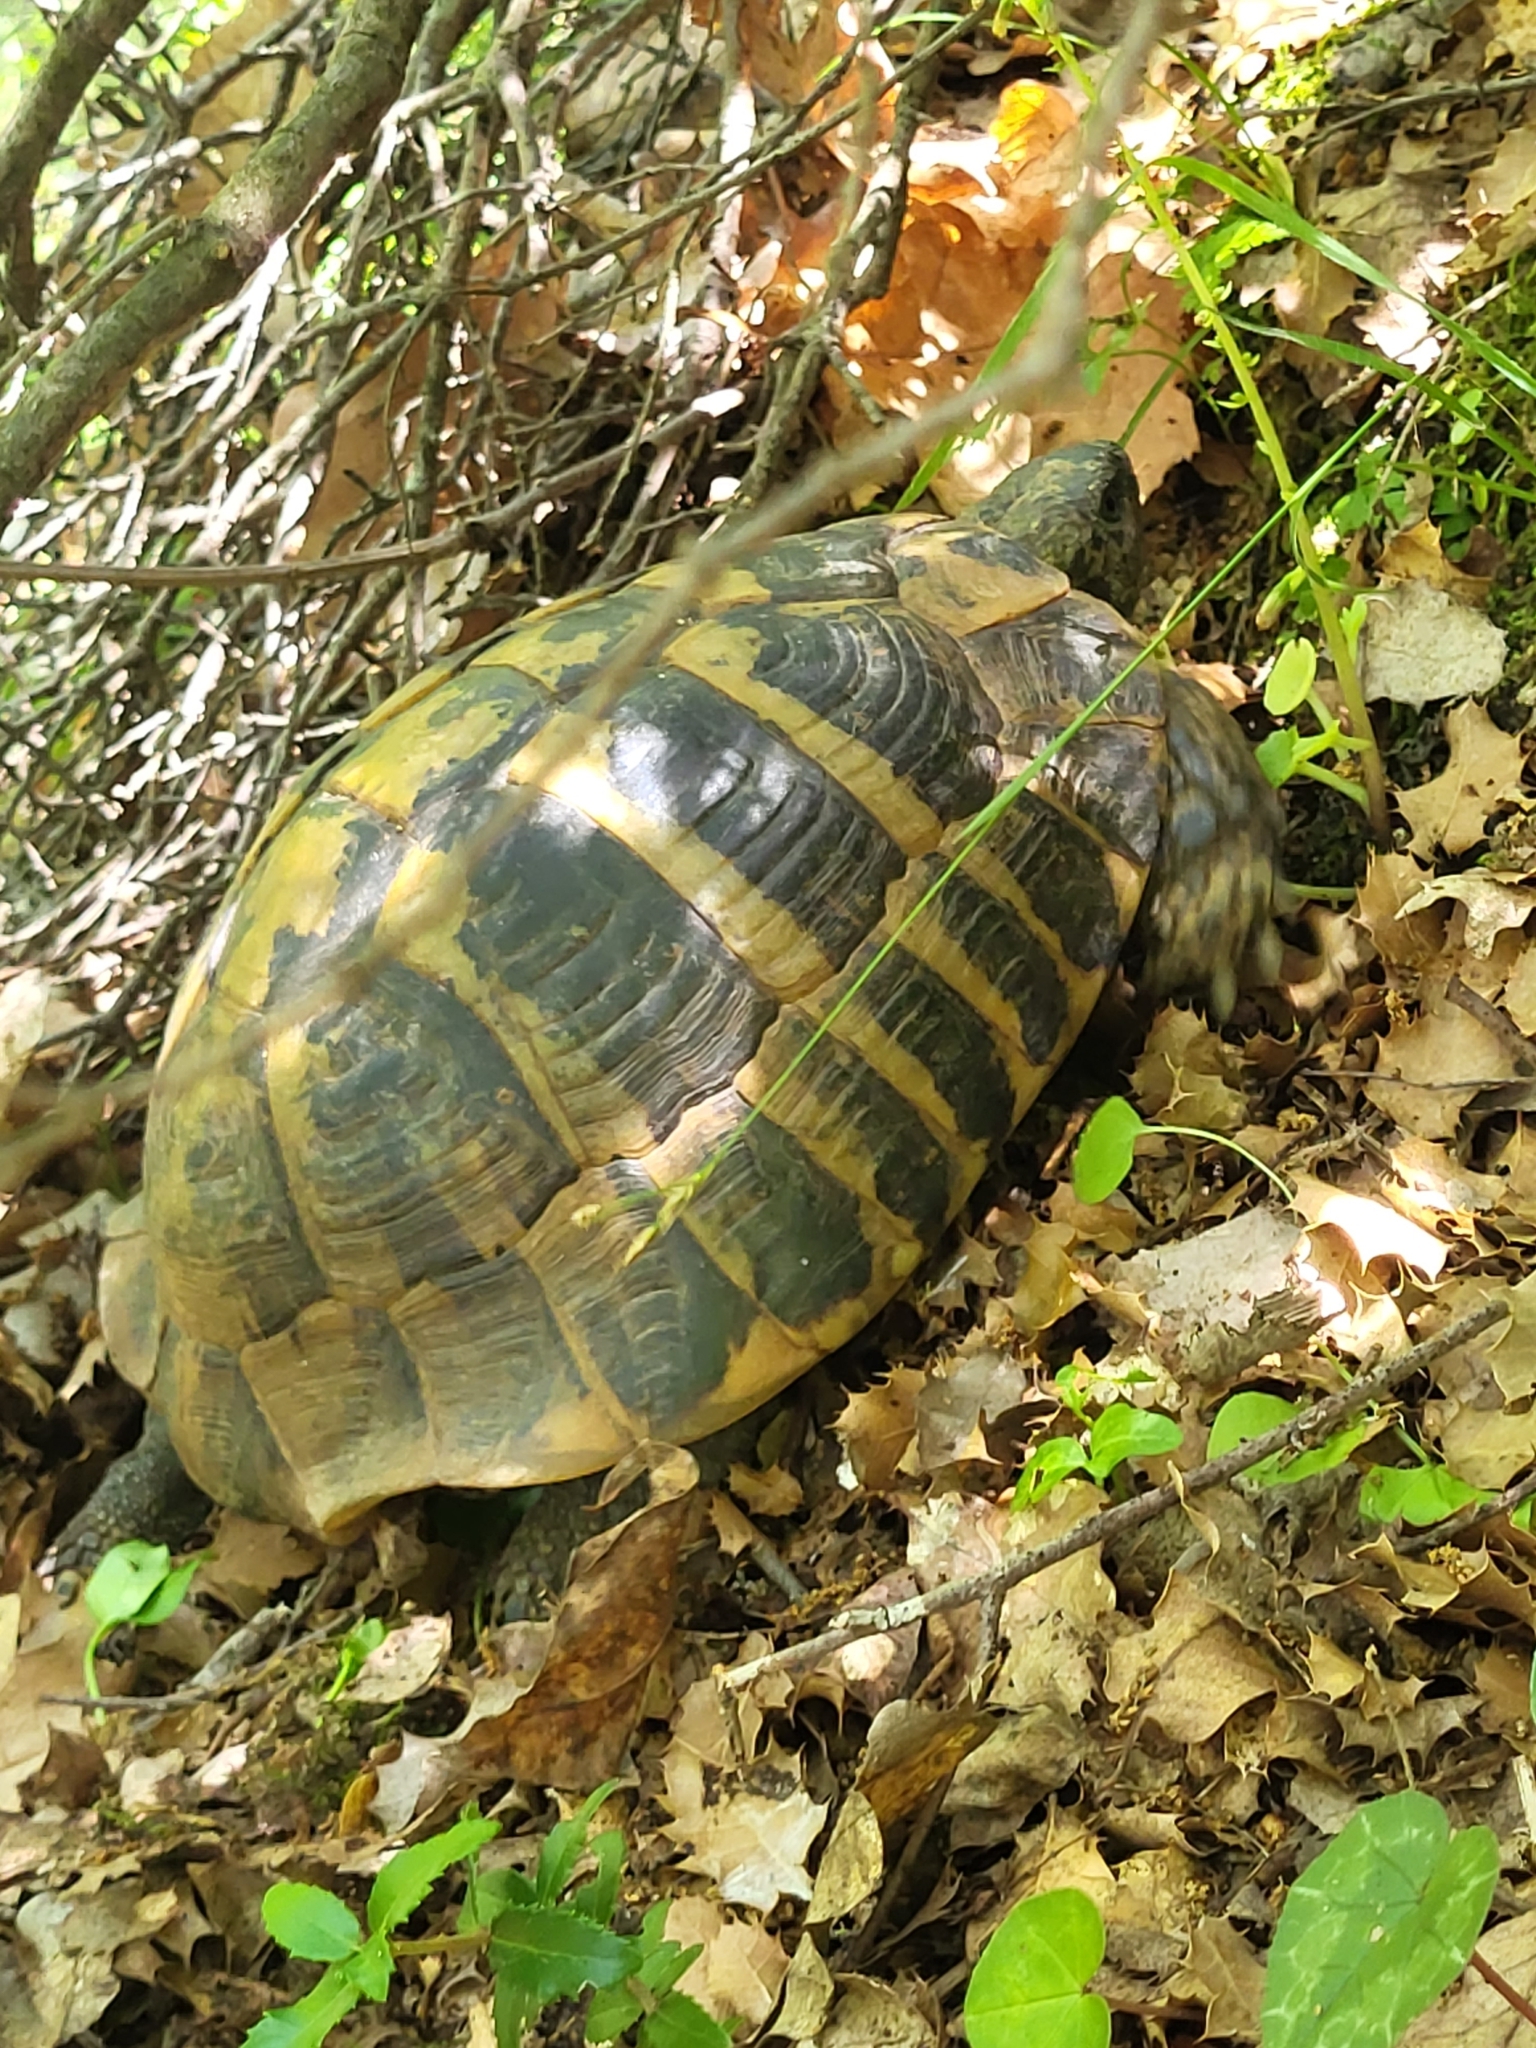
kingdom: Animalia
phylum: Chordata
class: Testudines
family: Testudinidae
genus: Testudo
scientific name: Testudo hermanni
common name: Hermann's tortoise
